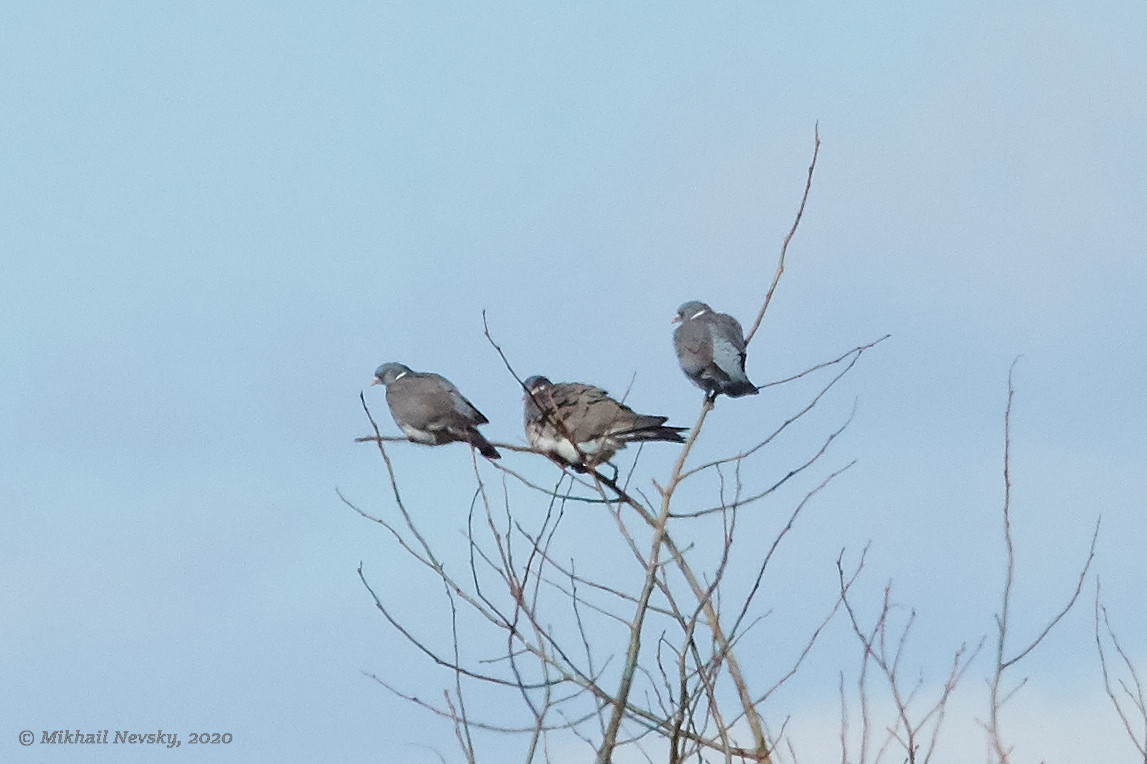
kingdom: Animalia
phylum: Chordata
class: Aves
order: Columbiformes
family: Columbidae
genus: Columba
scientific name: Columba palumbus
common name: Common wood pigeon
